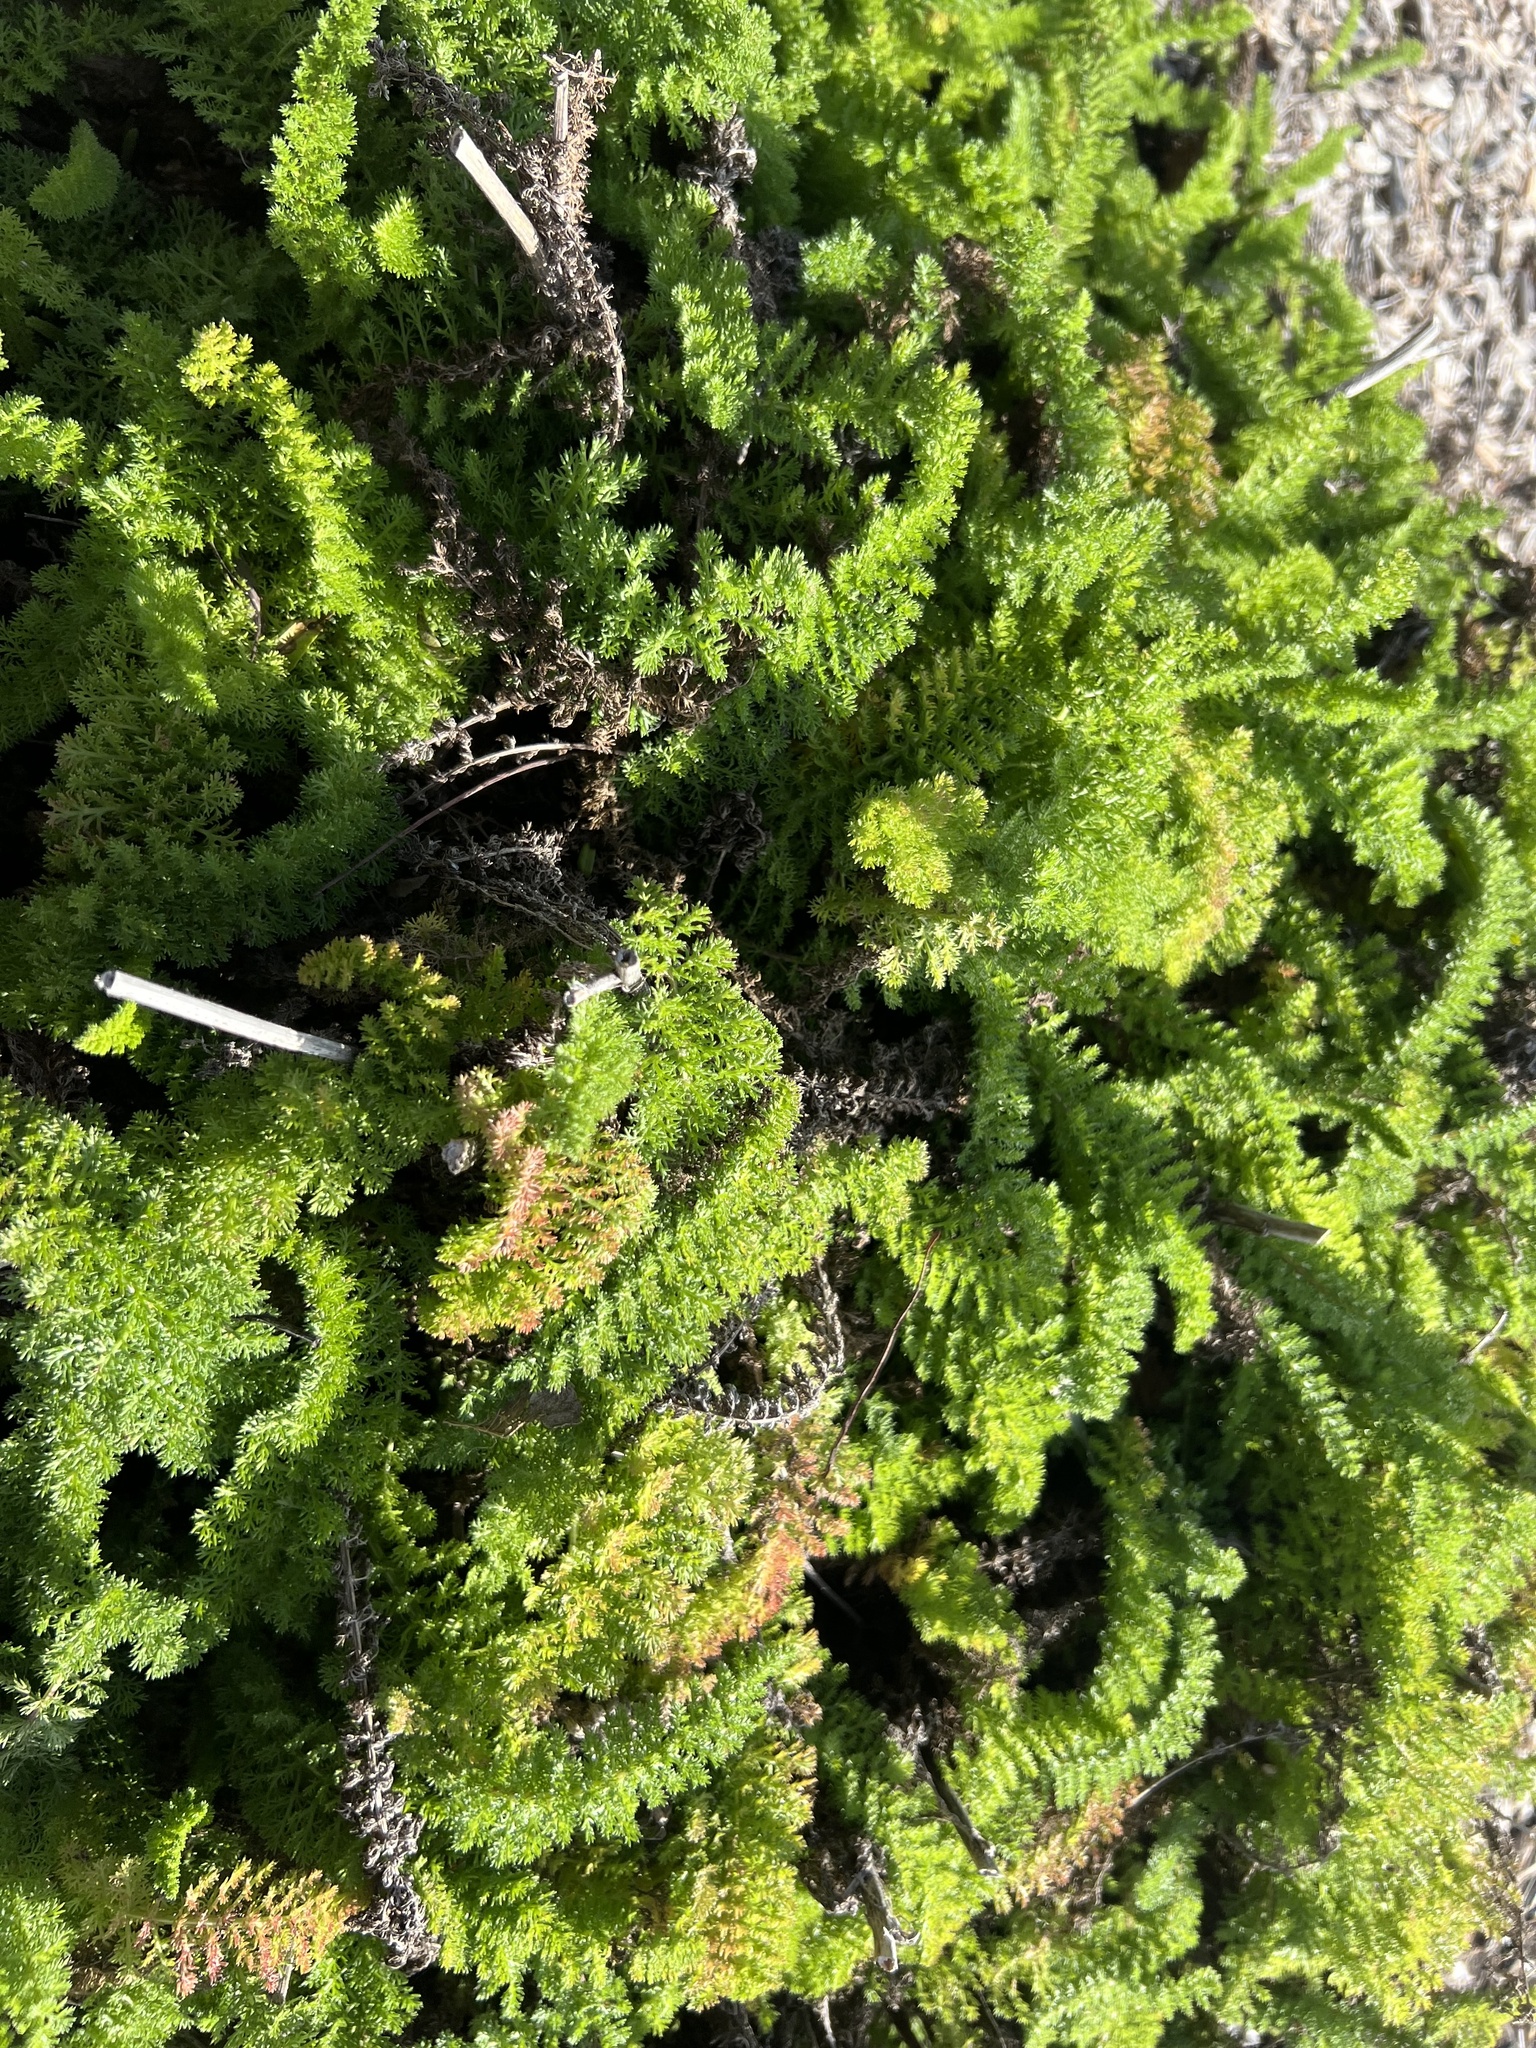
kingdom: Plantae
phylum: Tracheophyta
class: Magnoliopsida
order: Asterales
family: Asteraceae
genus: Achillea
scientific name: Achillea millefolium
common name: Yarrow
